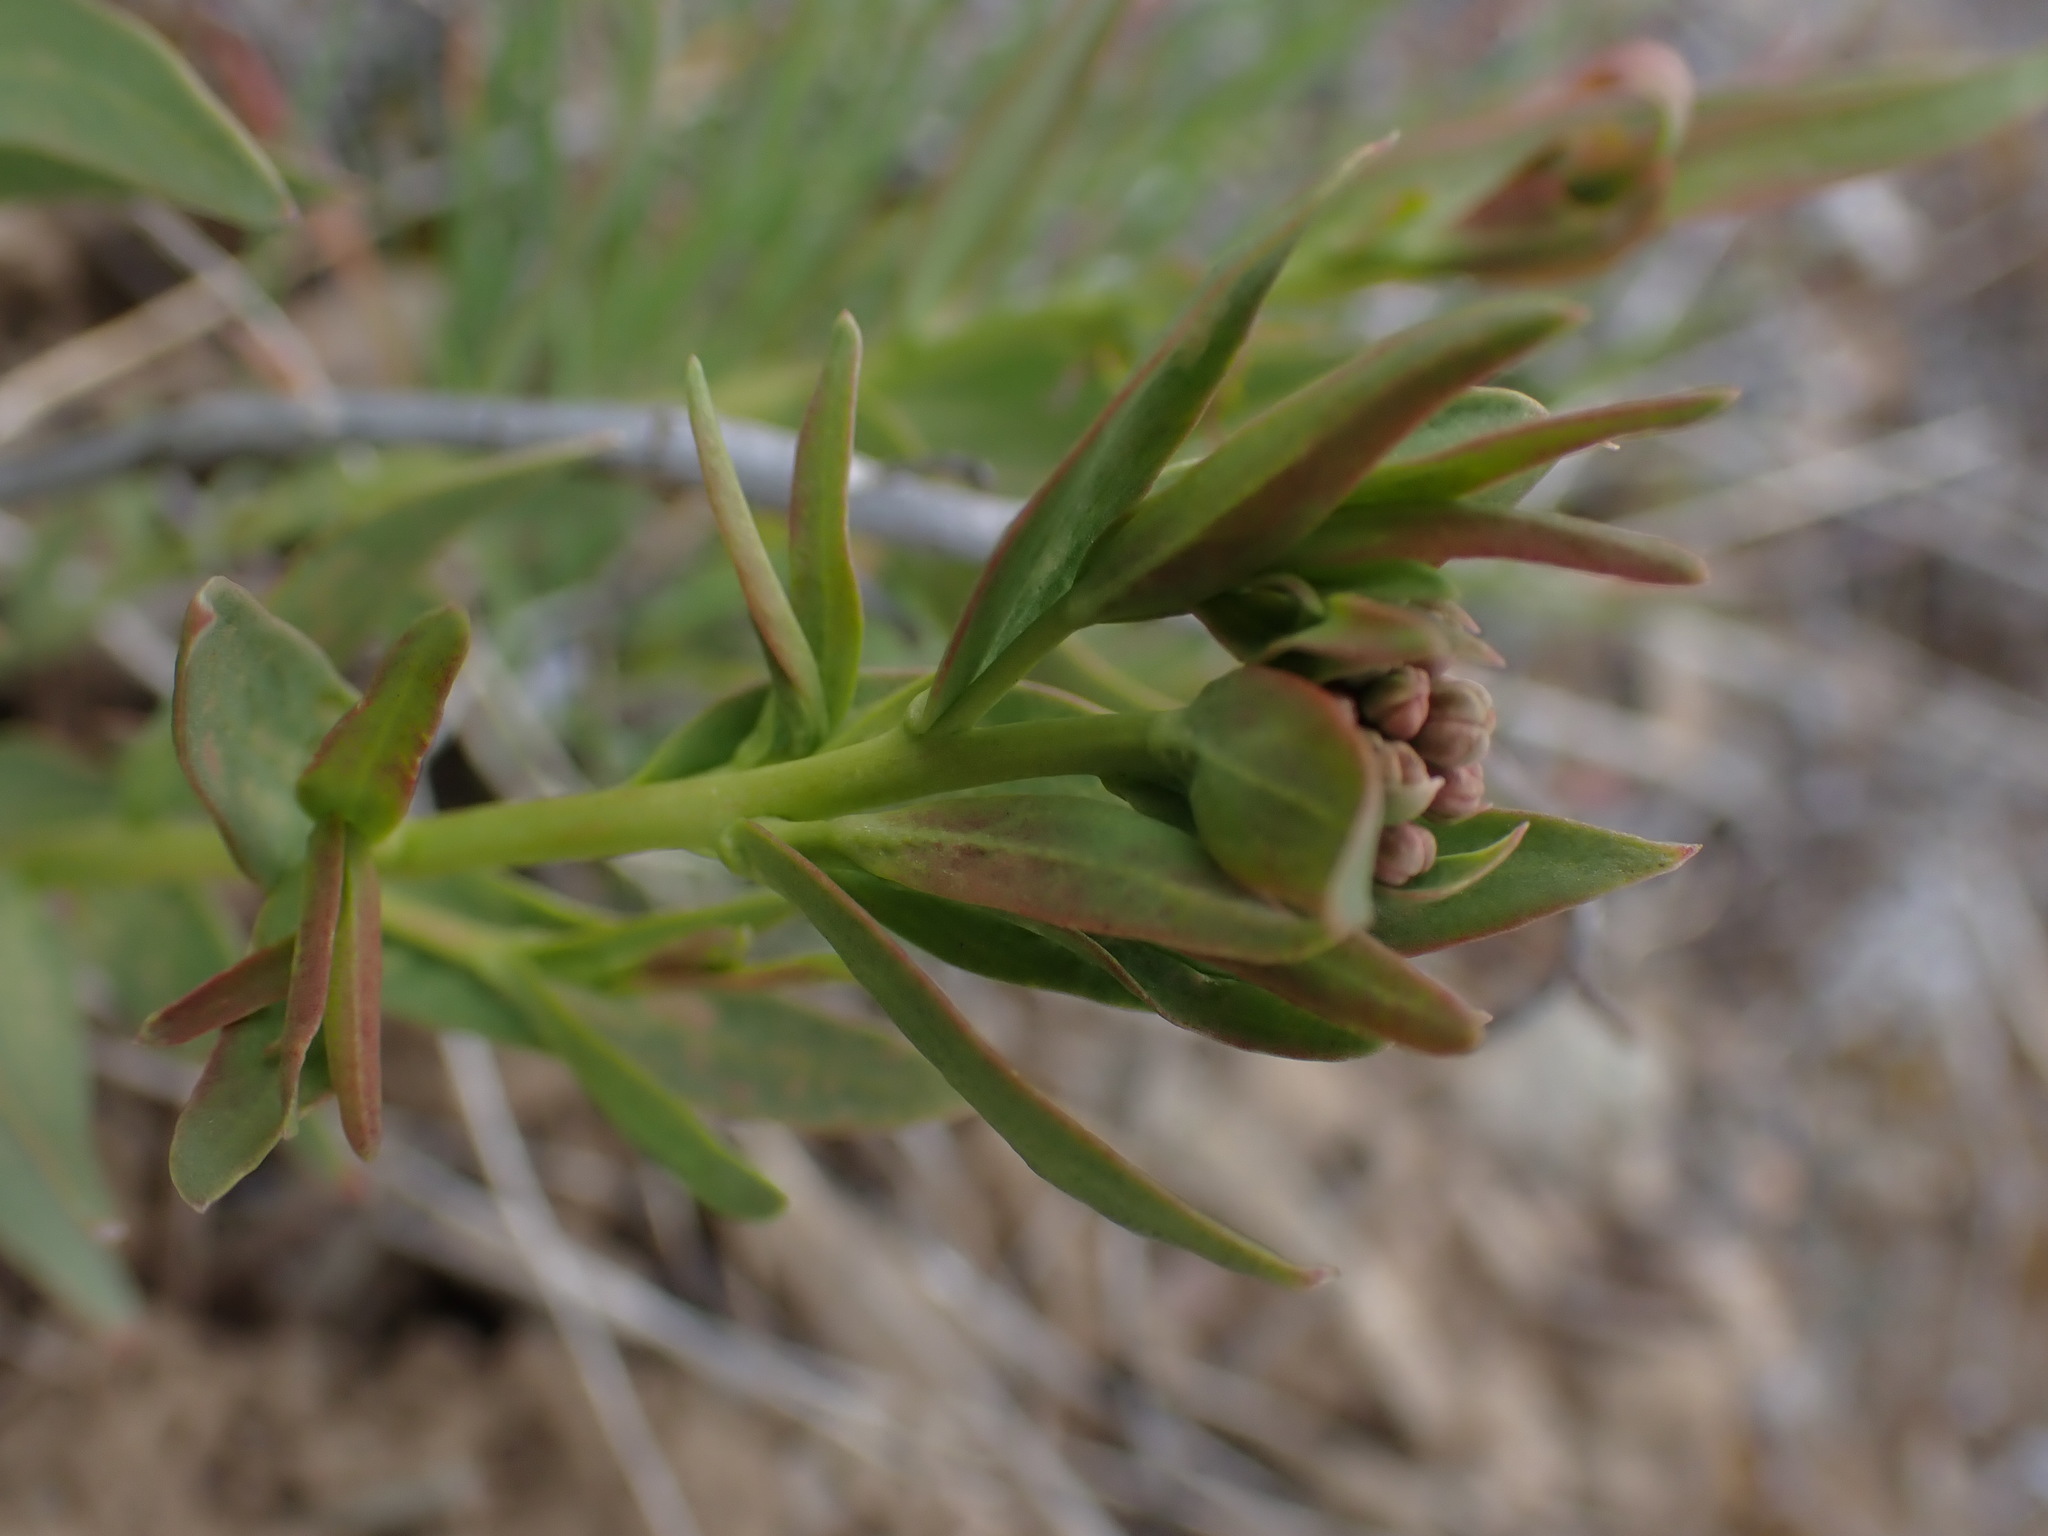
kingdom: Plantae
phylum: Tracheophyta
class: Magnoliopsida
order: Santalales
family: Comandraceae
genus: Comandra
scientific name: Comandra umbellata
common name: Bastard toadflax
